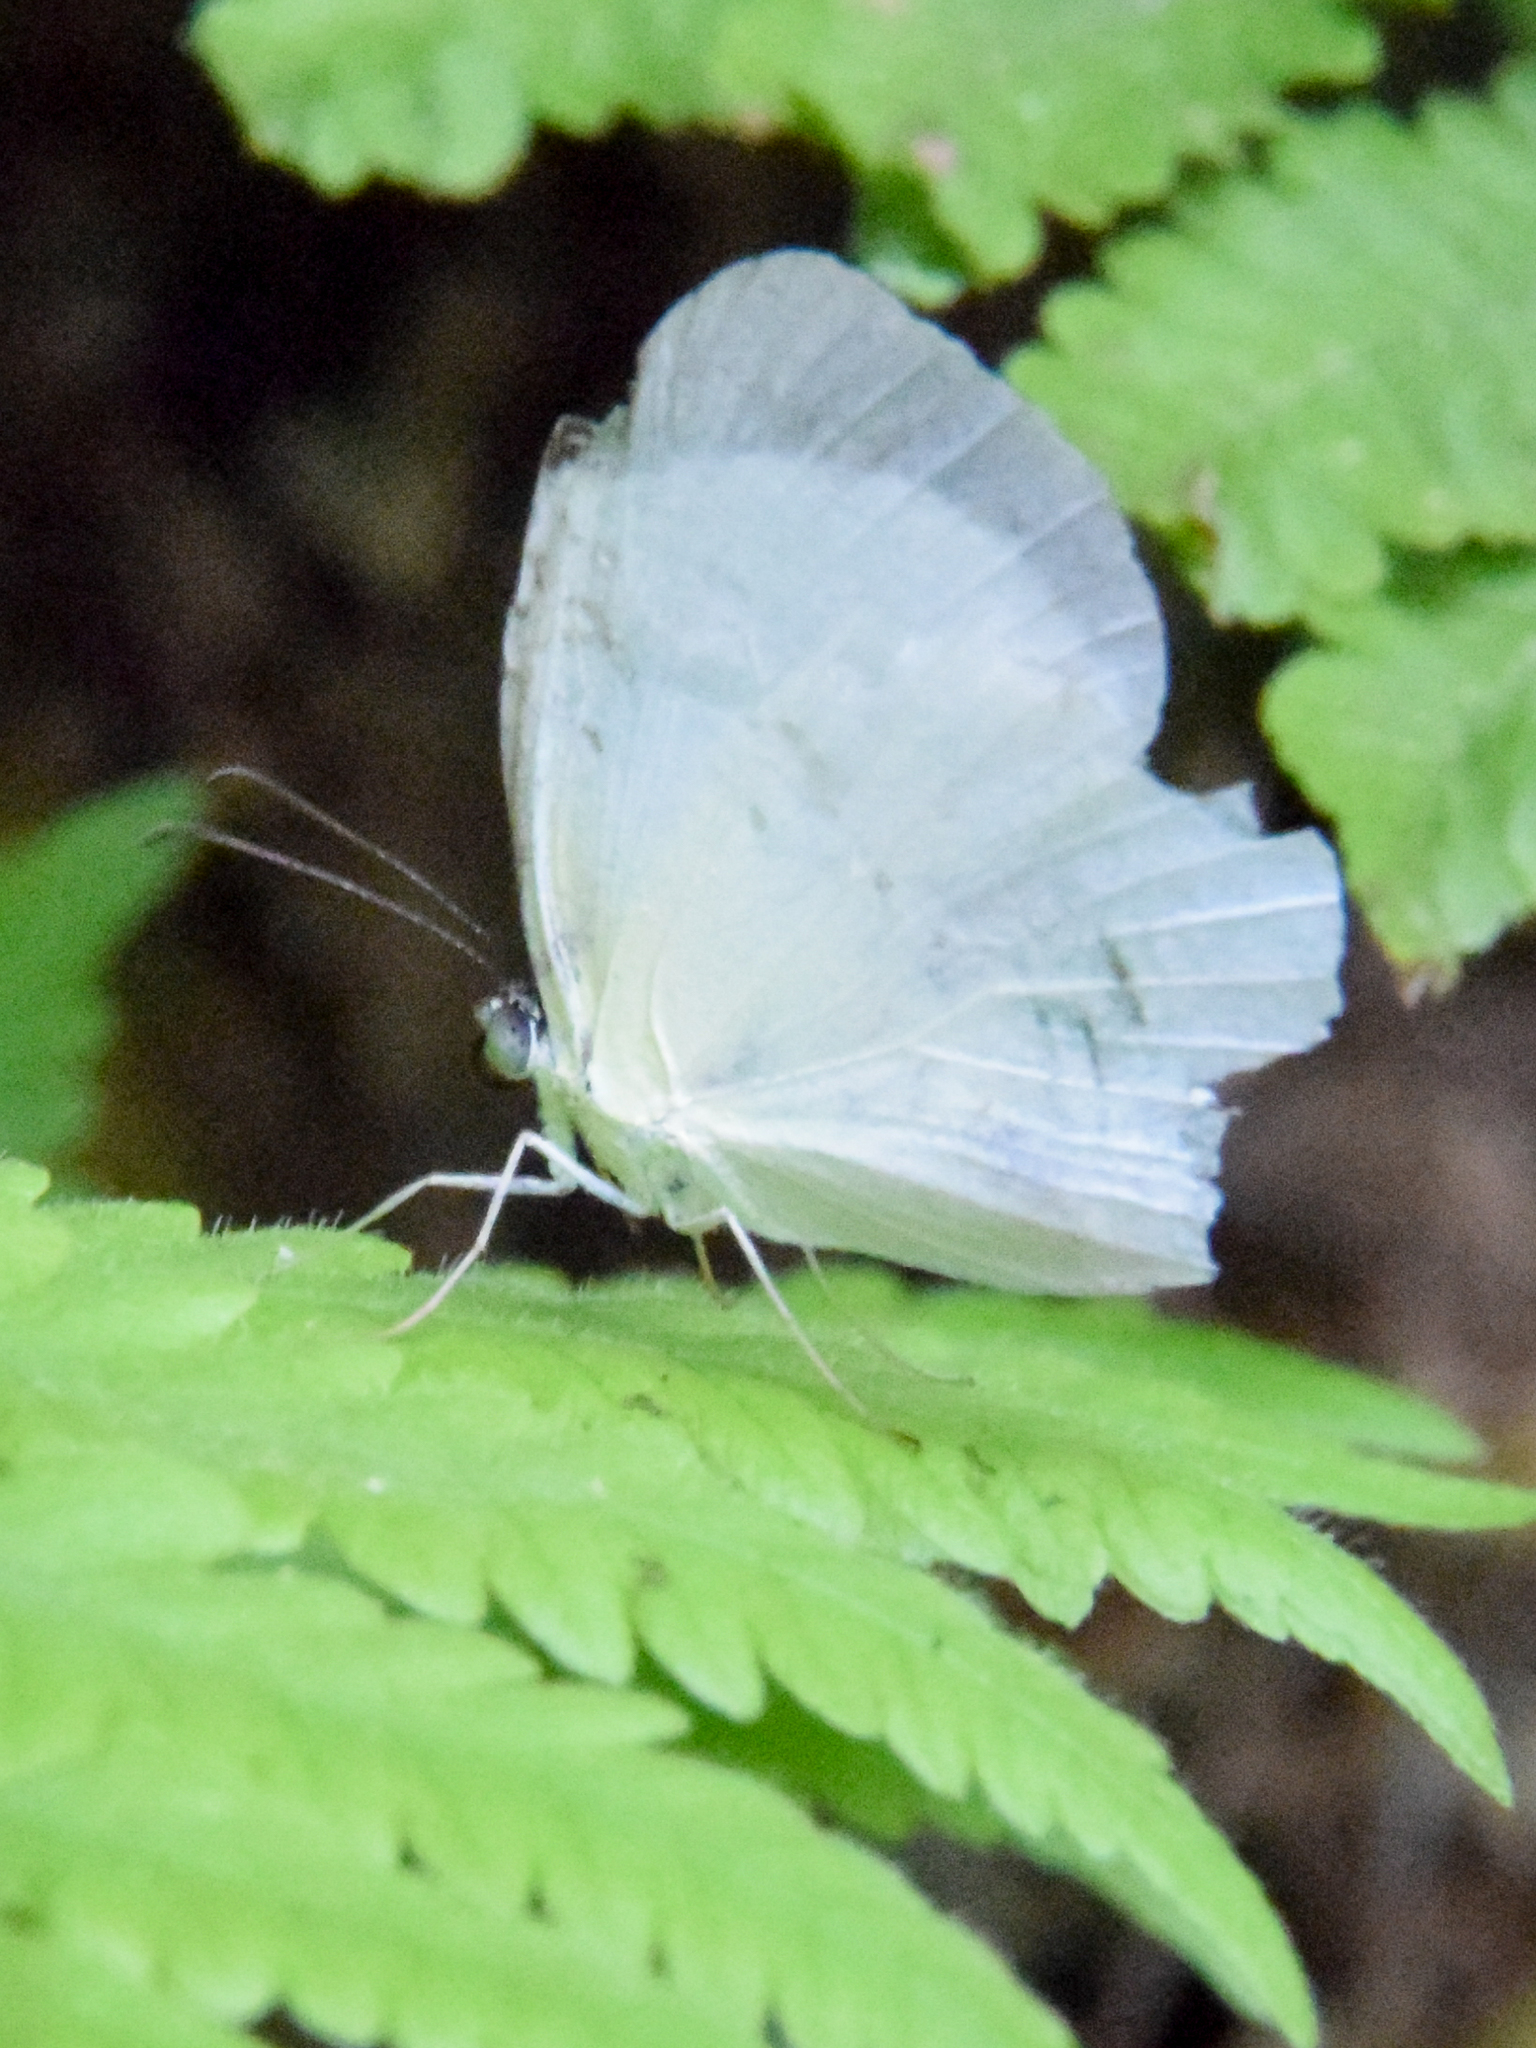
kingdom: Animalia
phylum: Arthropoda
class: Insecta
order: Lepidoptera
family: Pieridae
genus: Abaeis
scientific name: Abaeis albula
